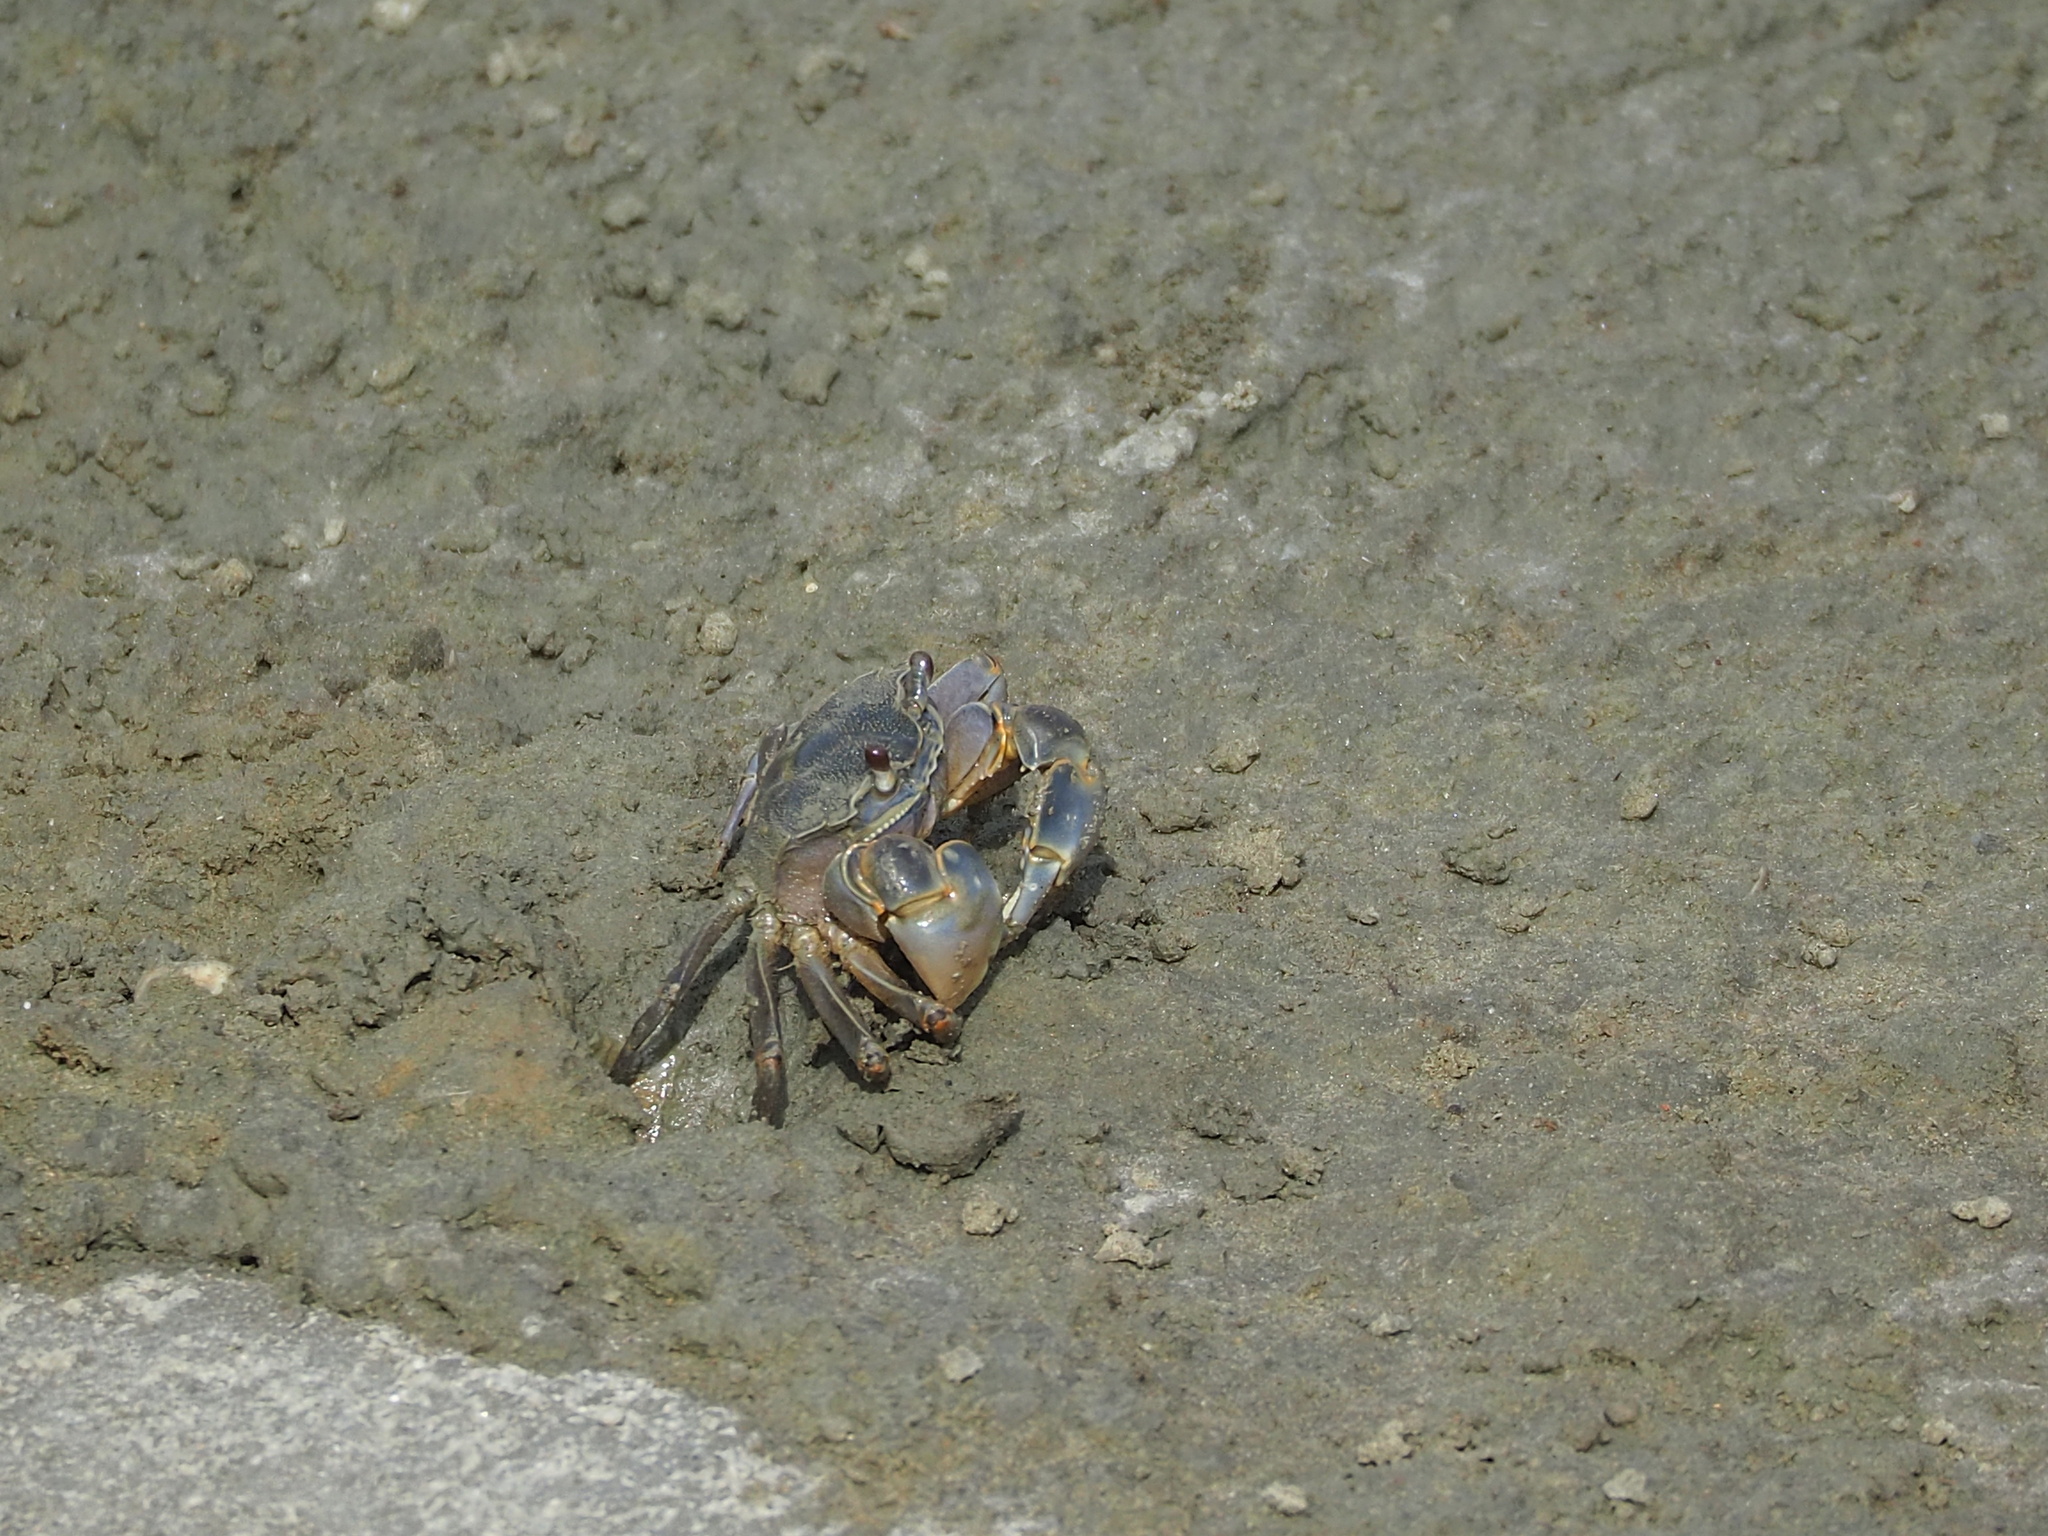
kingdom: Animalia
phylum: Arthropoda
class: Malacostraca
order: Decapoda
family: Varunidae
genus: Helice
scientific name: Helice formosensis
